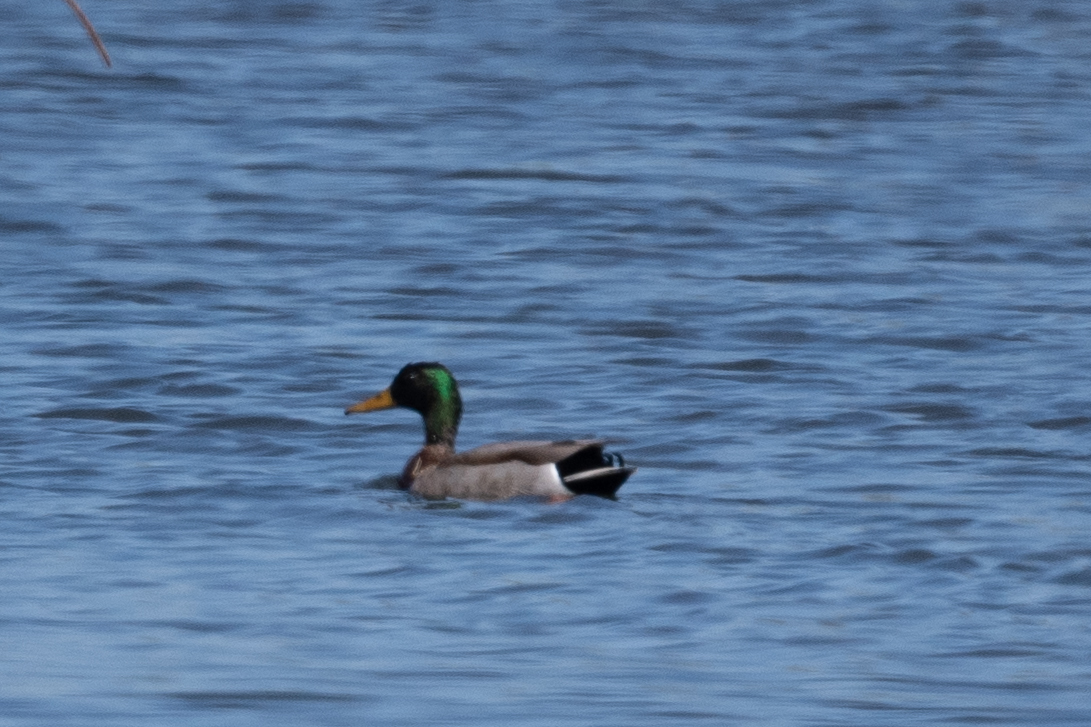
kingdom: Animalia
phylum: Chordata
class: Aves
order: Anseriformes
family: Anatidae
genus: Anas
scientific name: Anas platyrhynchos
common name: Mallard
